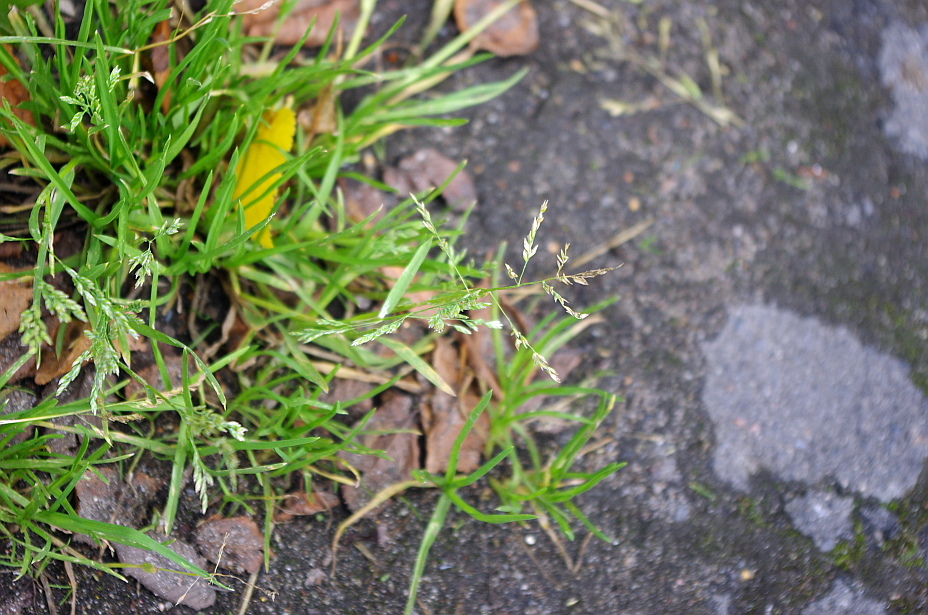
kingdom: Plantae
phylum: Tracheophyta
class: Liliopsida
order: Poales
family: Poaceae
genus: Poa
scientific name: Poa annua
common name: Annual bluegrass
